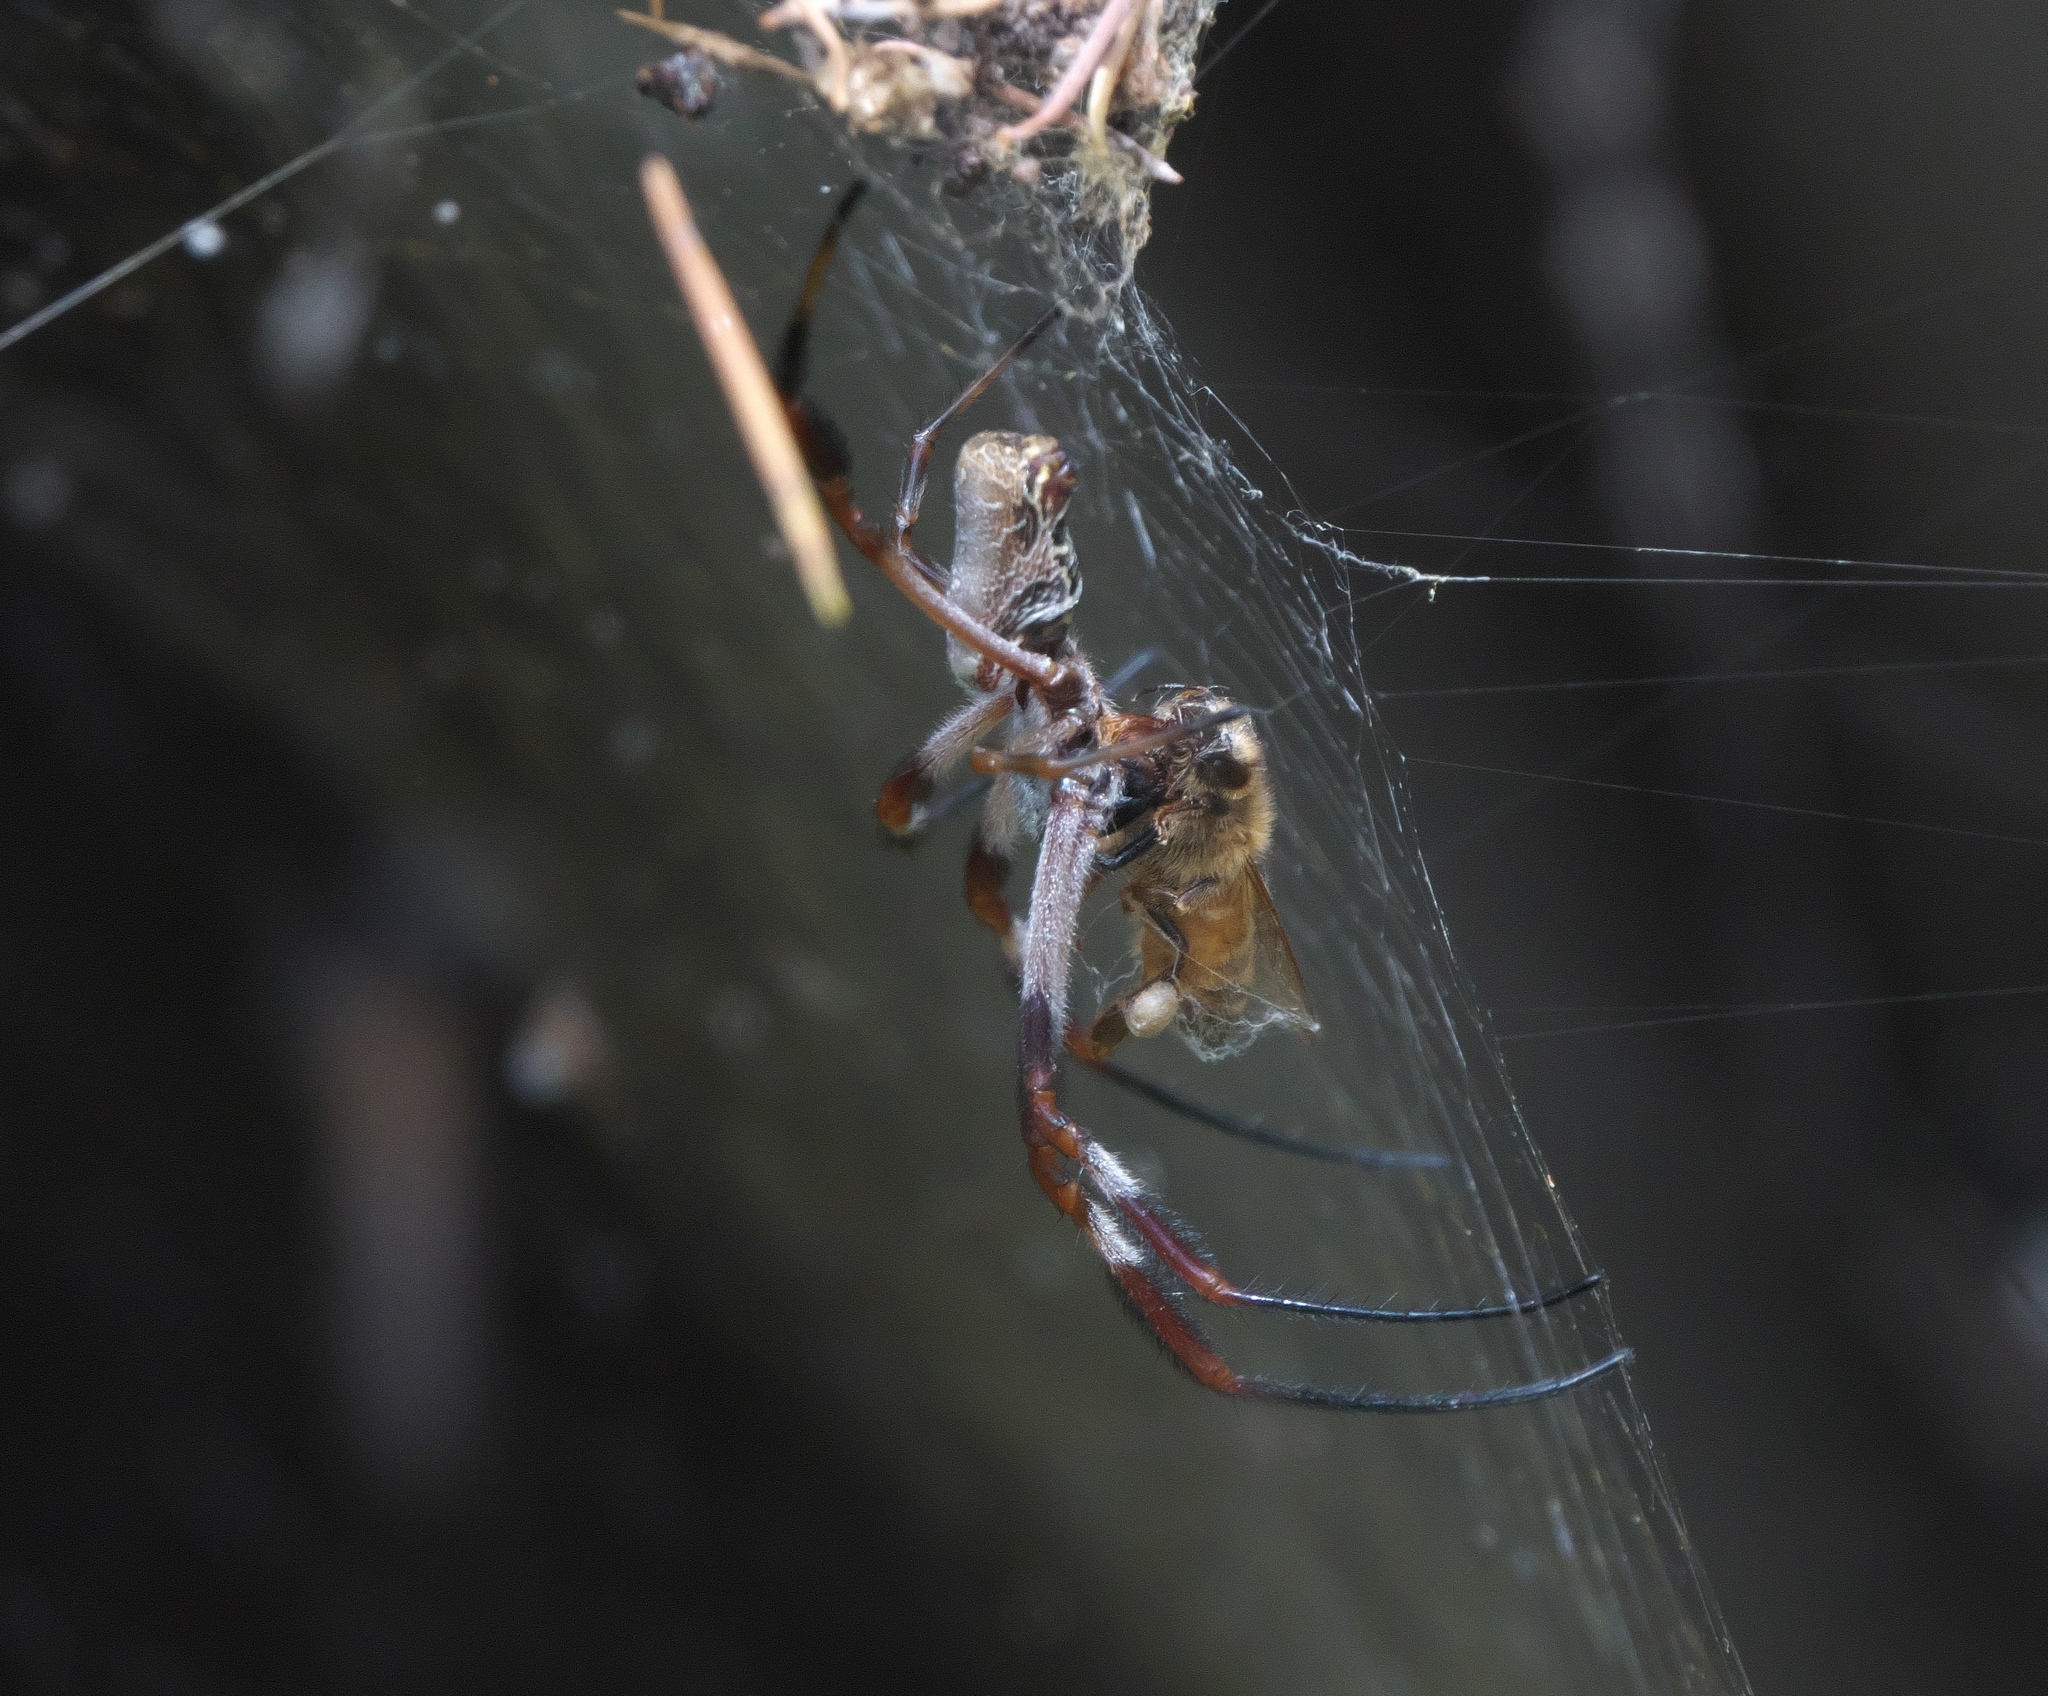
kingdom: Animalia
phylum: Arthropoda
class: Arachnida
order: Araneae
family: Araneidae
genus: Trichonephila
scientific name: Trichonephila edulis
